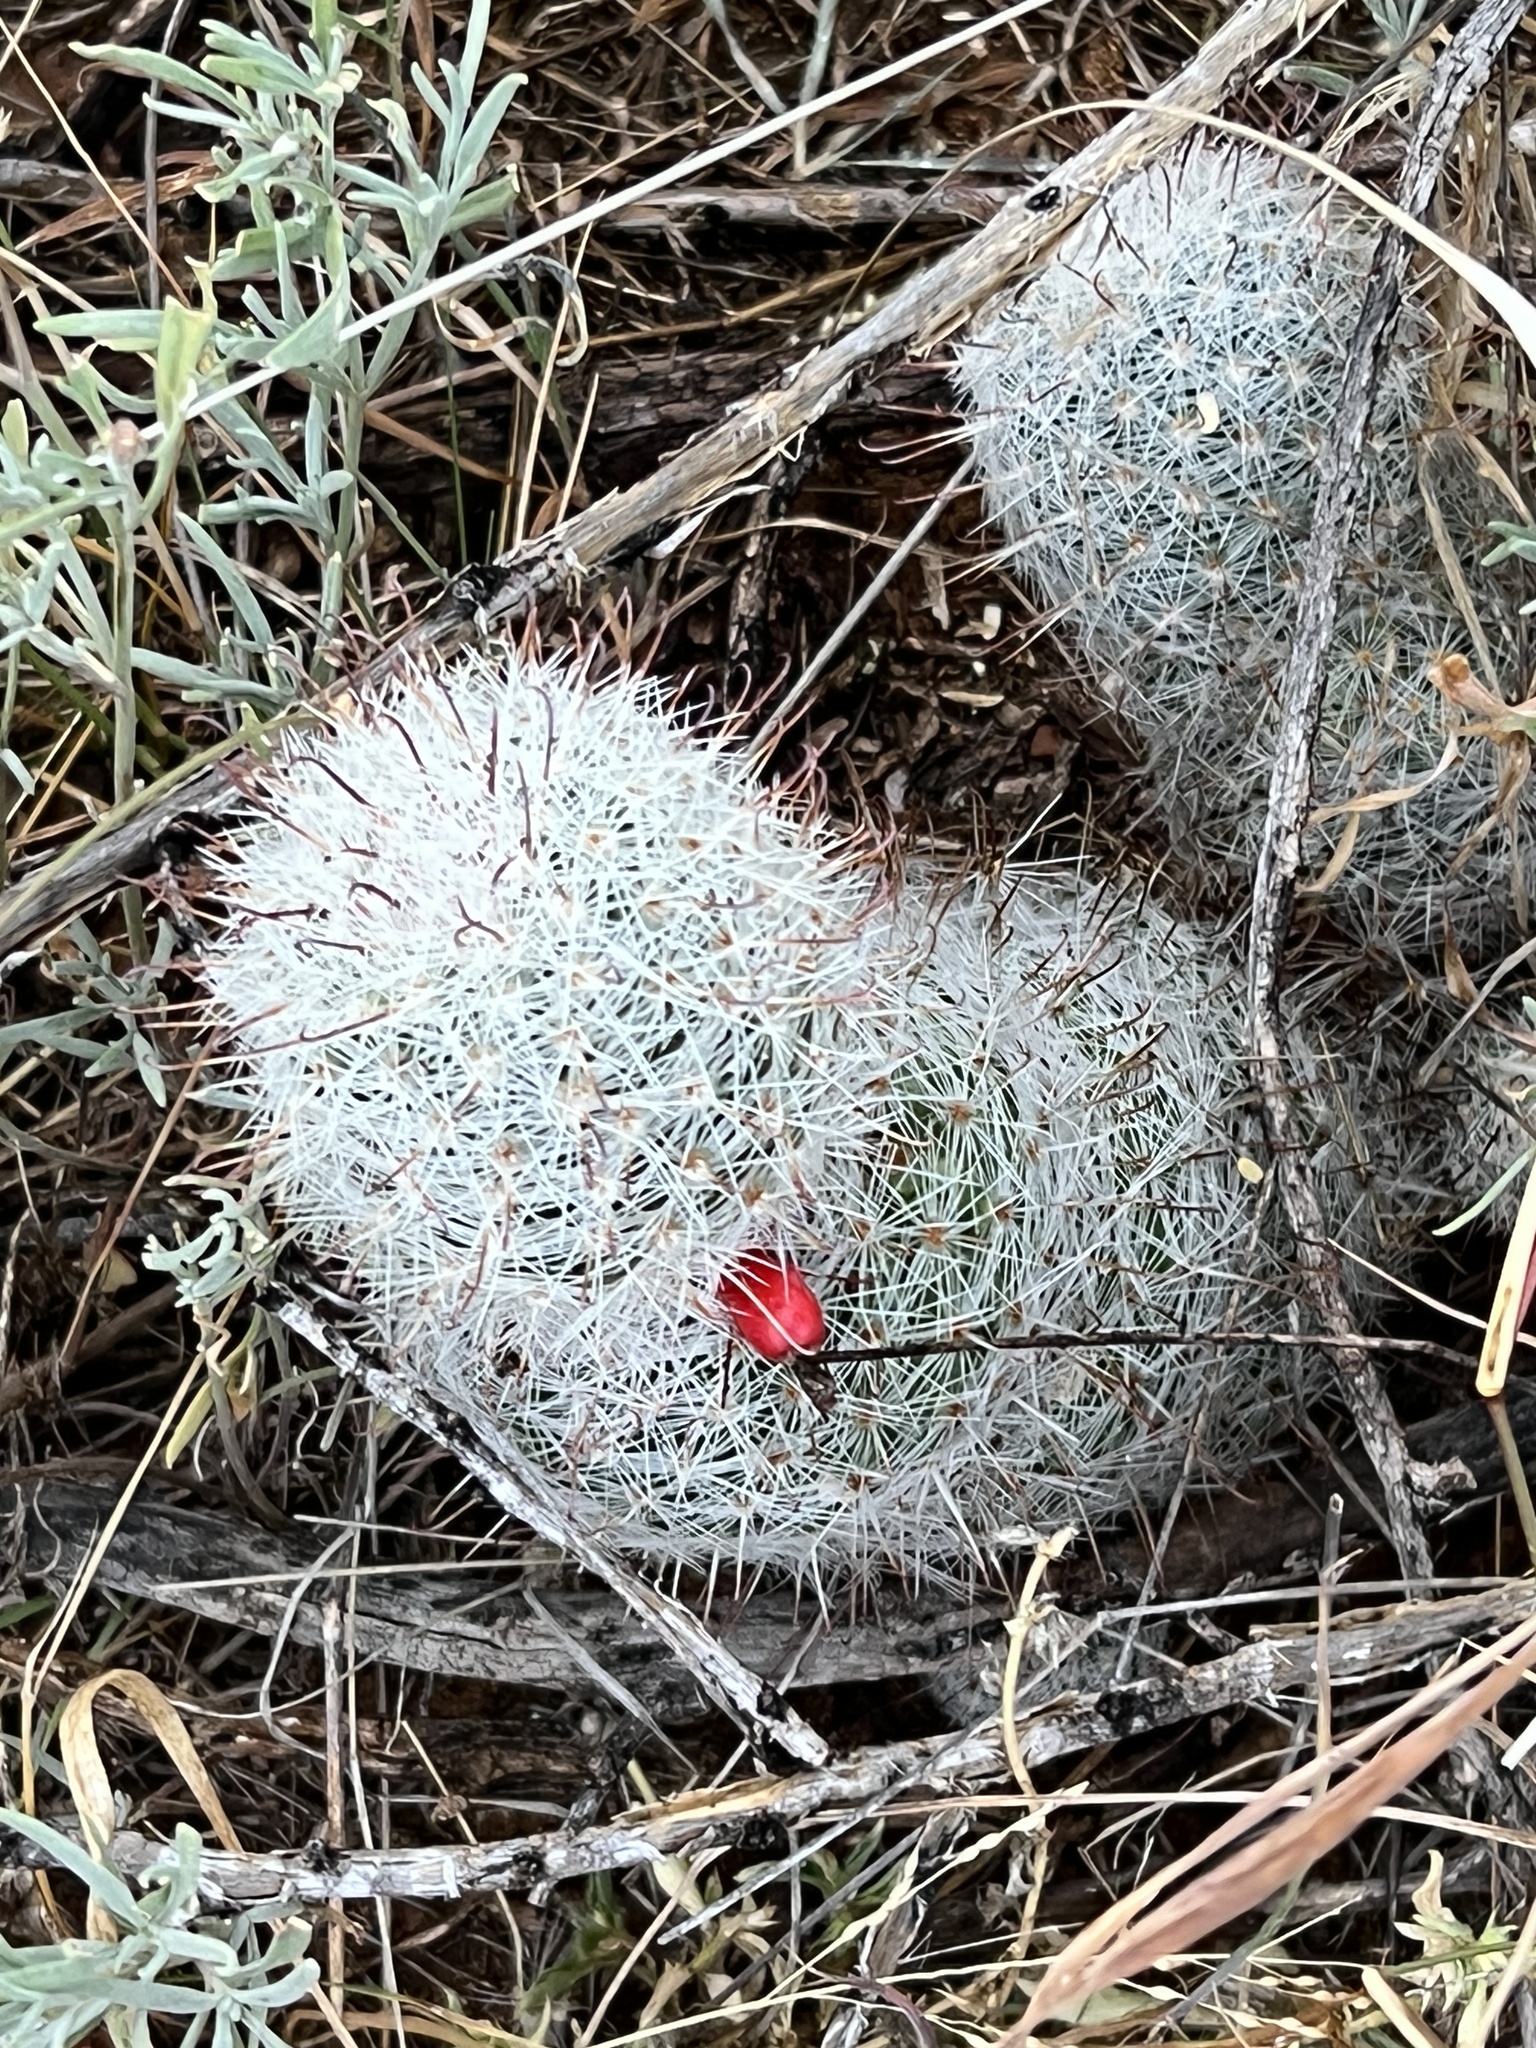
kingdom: Plantae
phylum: Tracheophyta
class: Magnoliopsida
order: Caryophyllales
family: Cactaceae
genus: Cochemiea
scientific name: Cochemiea grahamii
